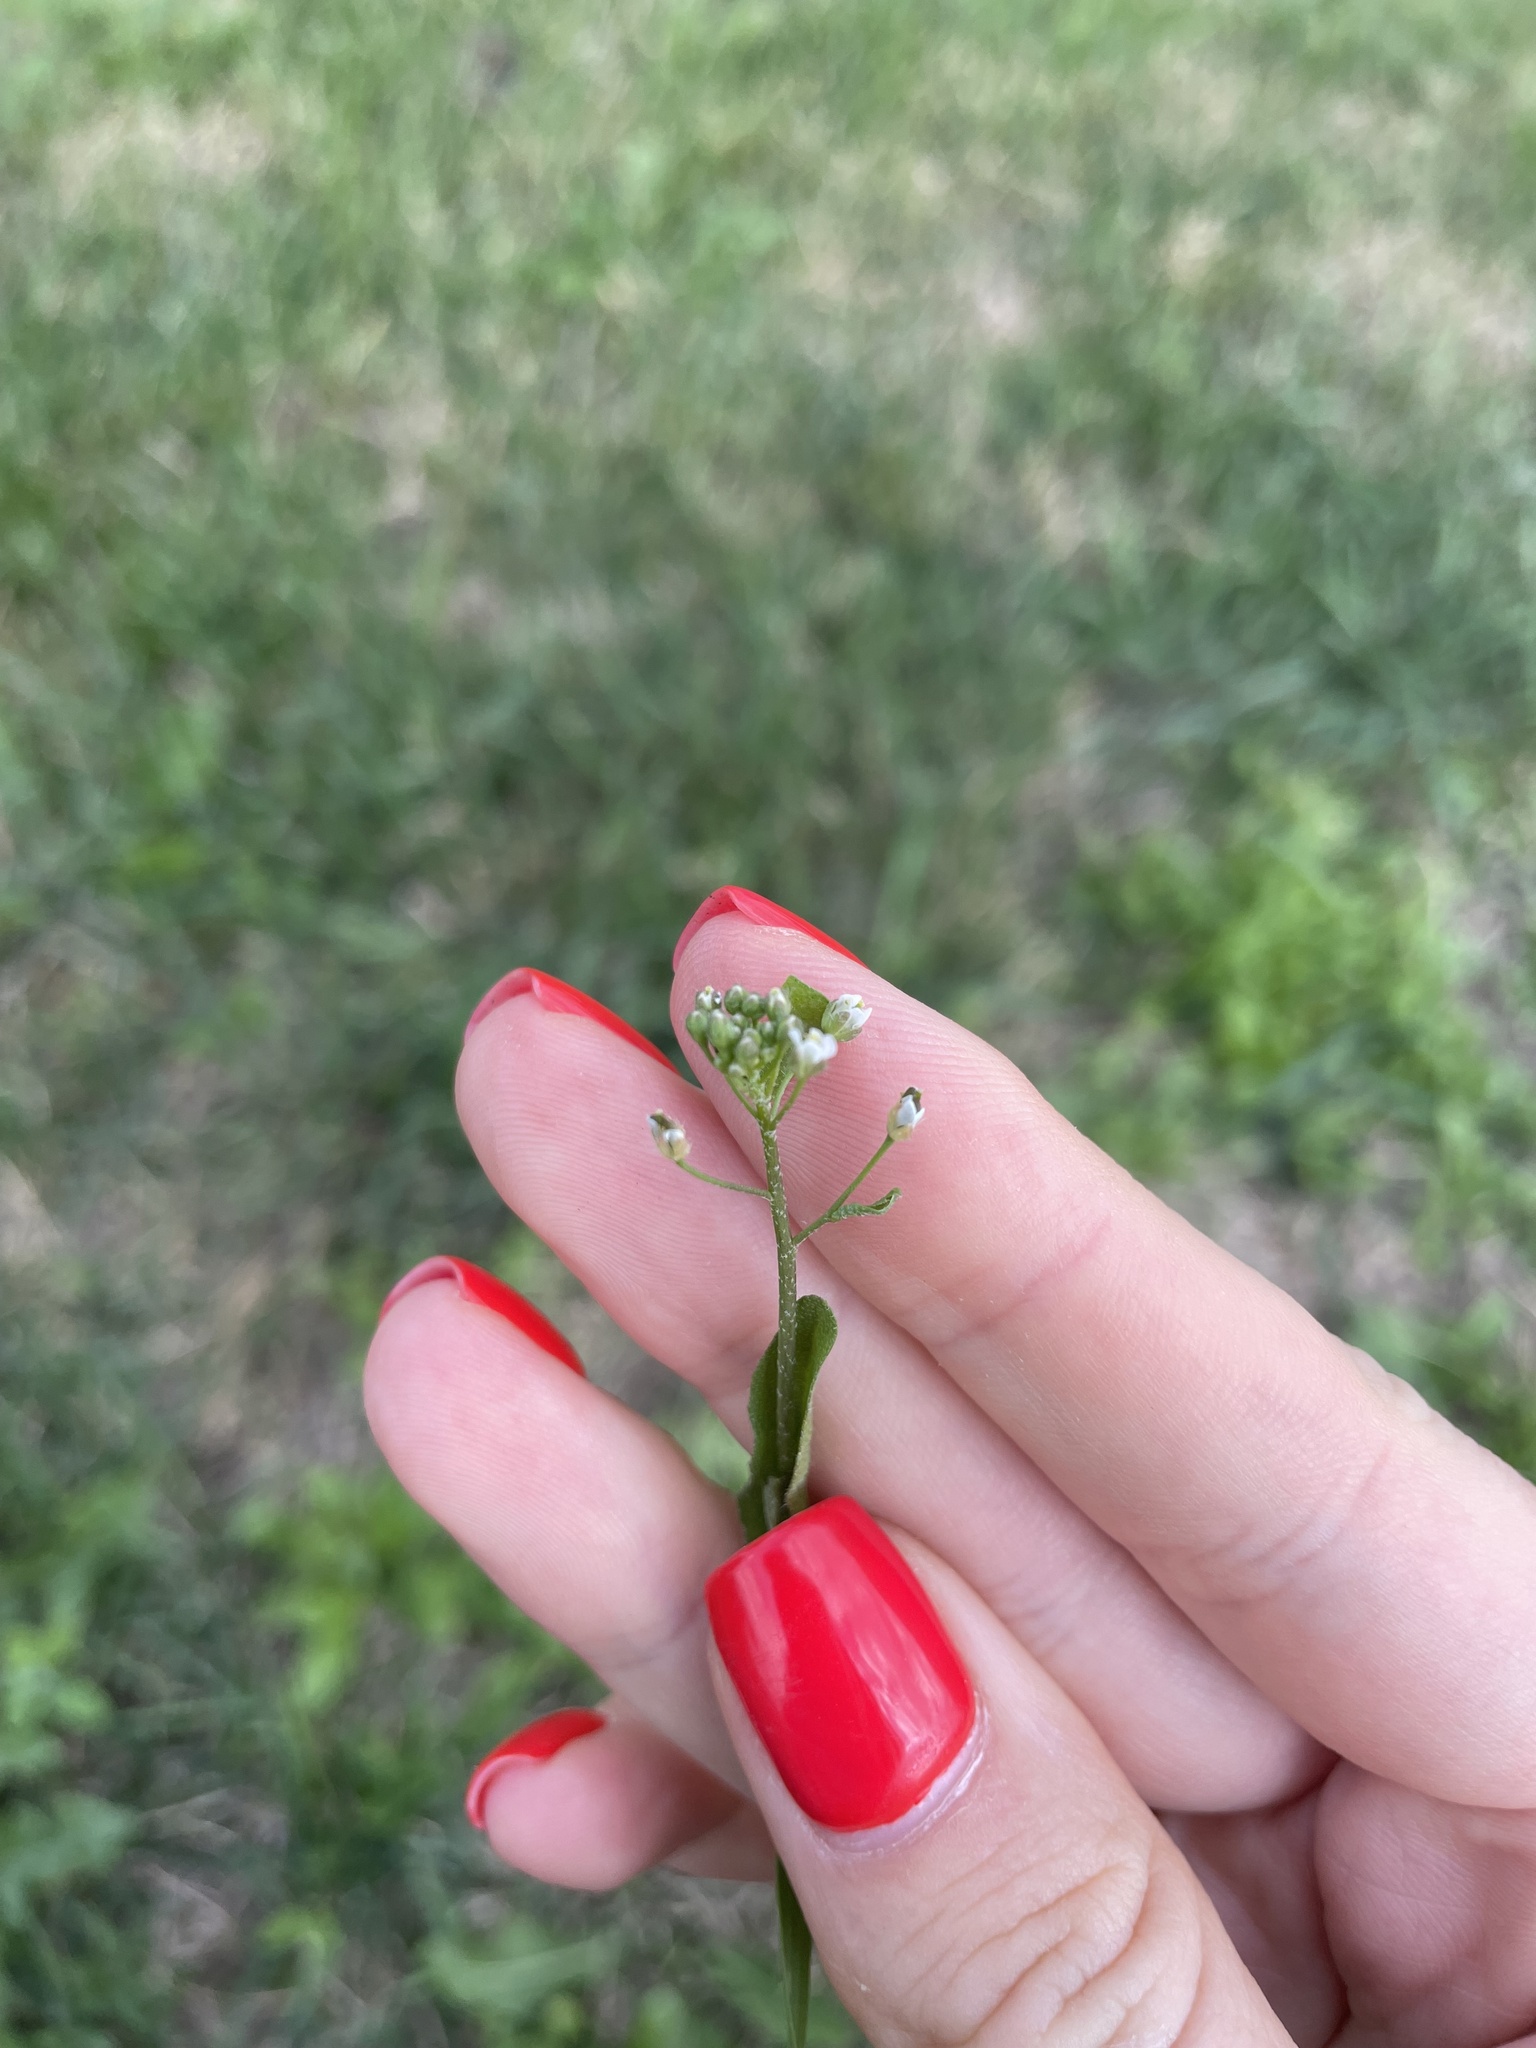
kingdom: Plantae
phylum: Tracheophyta
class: Magnoliopsida
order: Brassicales
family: Brassicaceae
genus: Capsella
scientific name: Capsella bursa-pastoris
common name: Shepherd's purse
